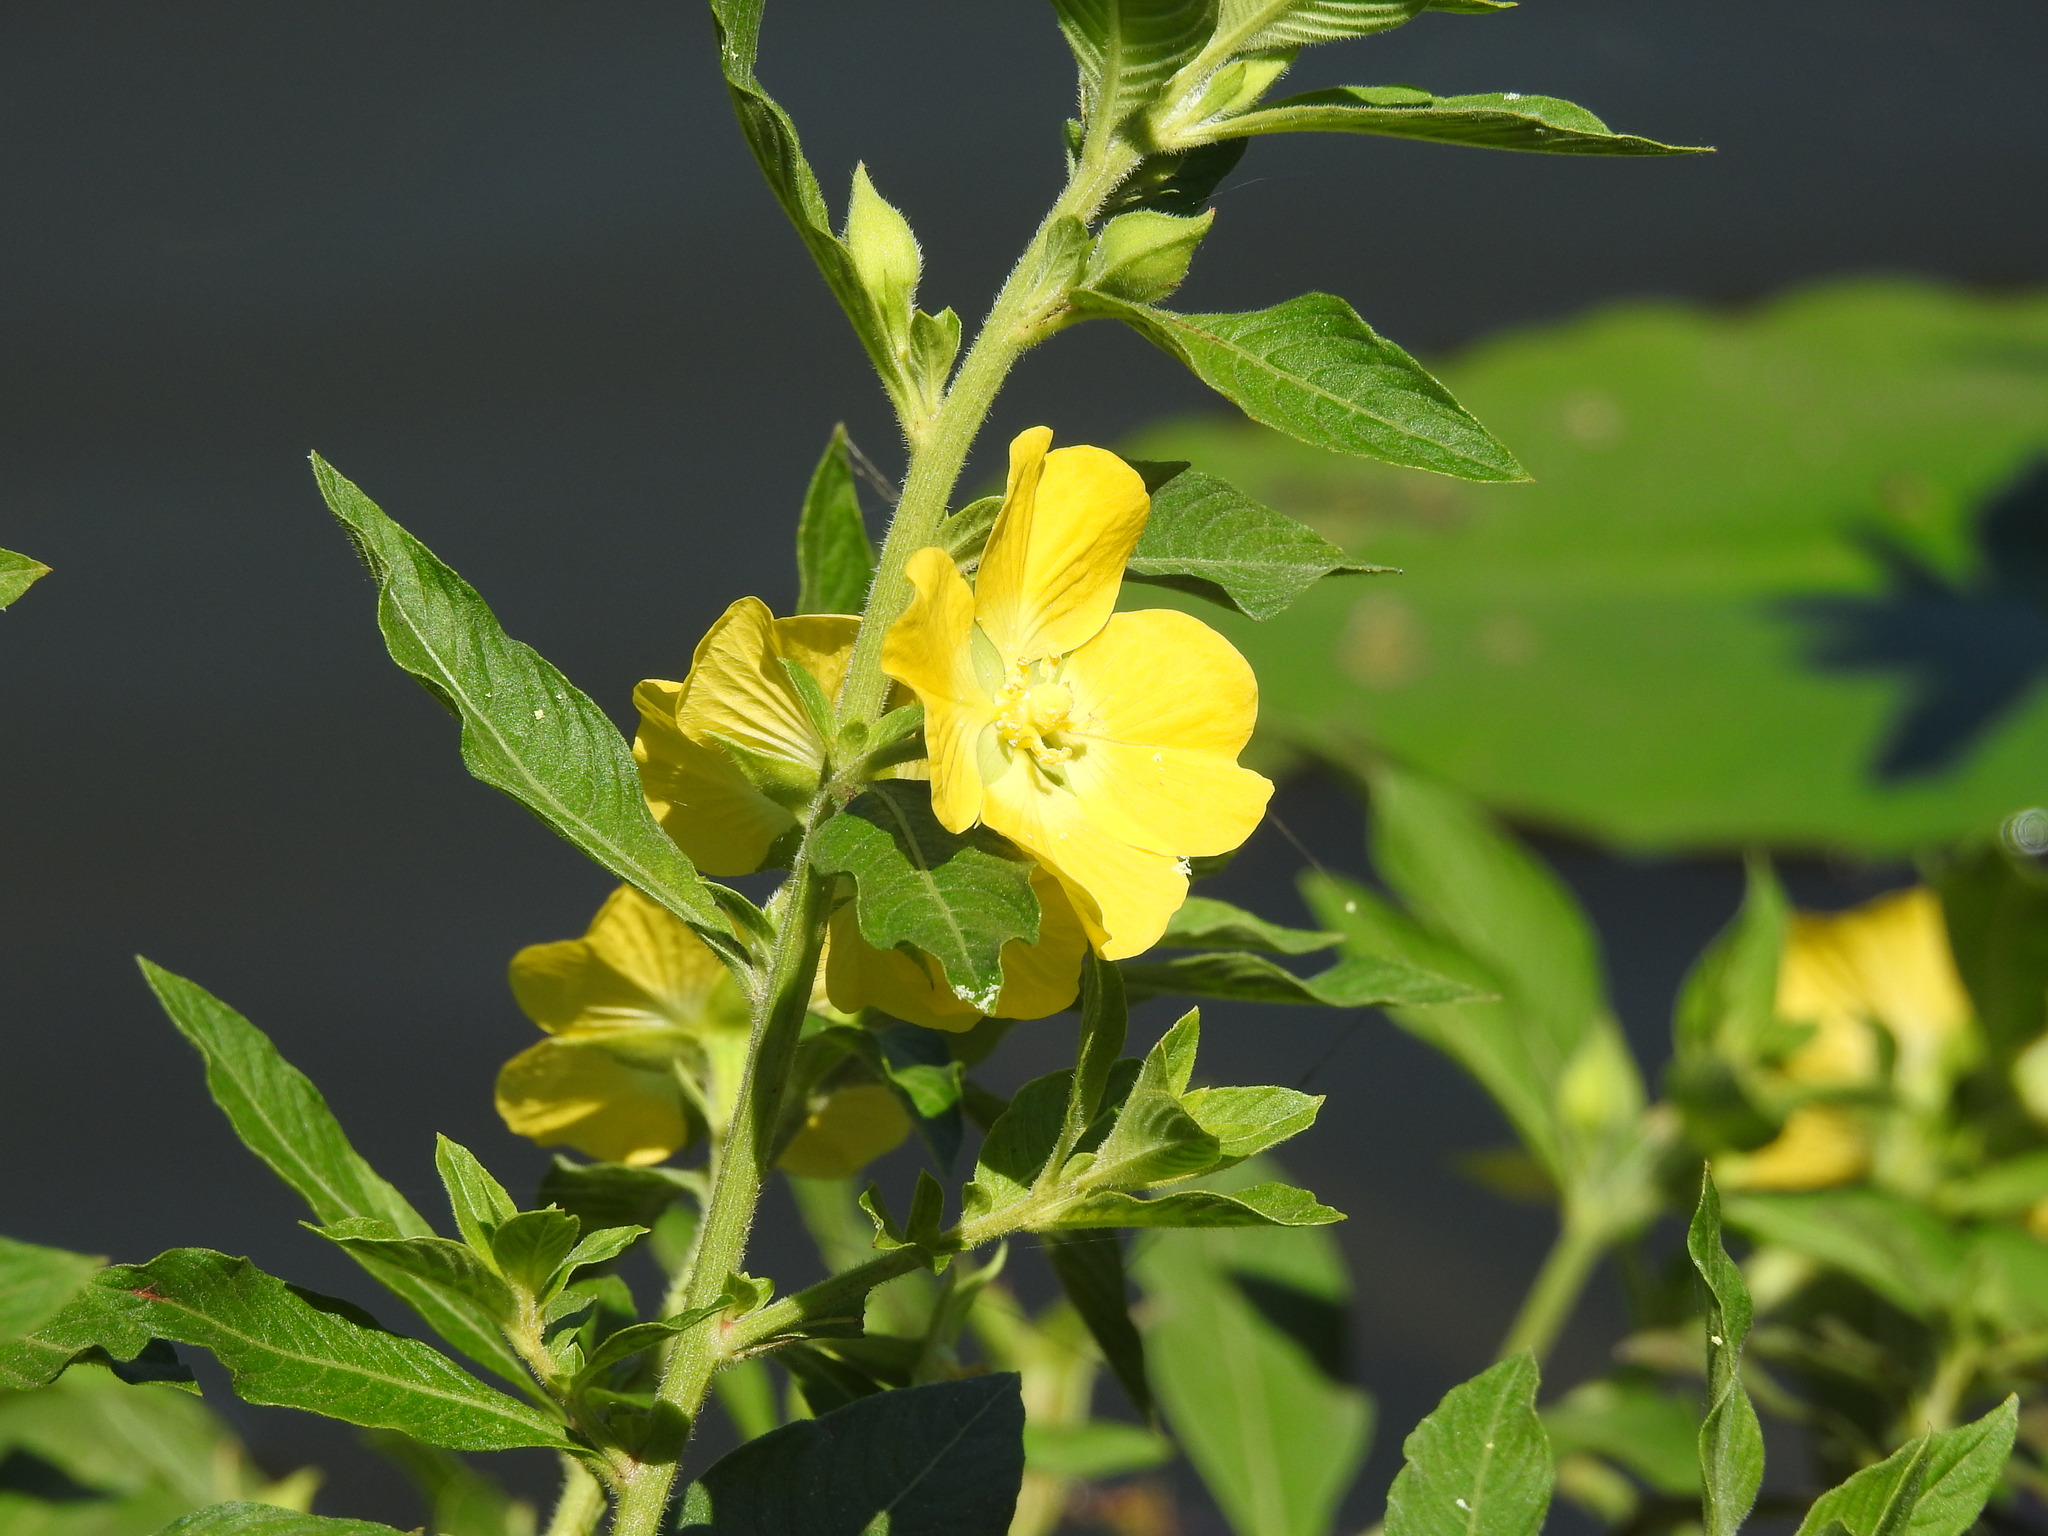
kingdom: Plantae
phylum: Tracheophyta
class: Magnoliopsida
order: Myrtales
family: Onagraceae
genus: Ludwigia
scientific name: Ludwigia peruviana
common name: Peruvian primrose-willow
